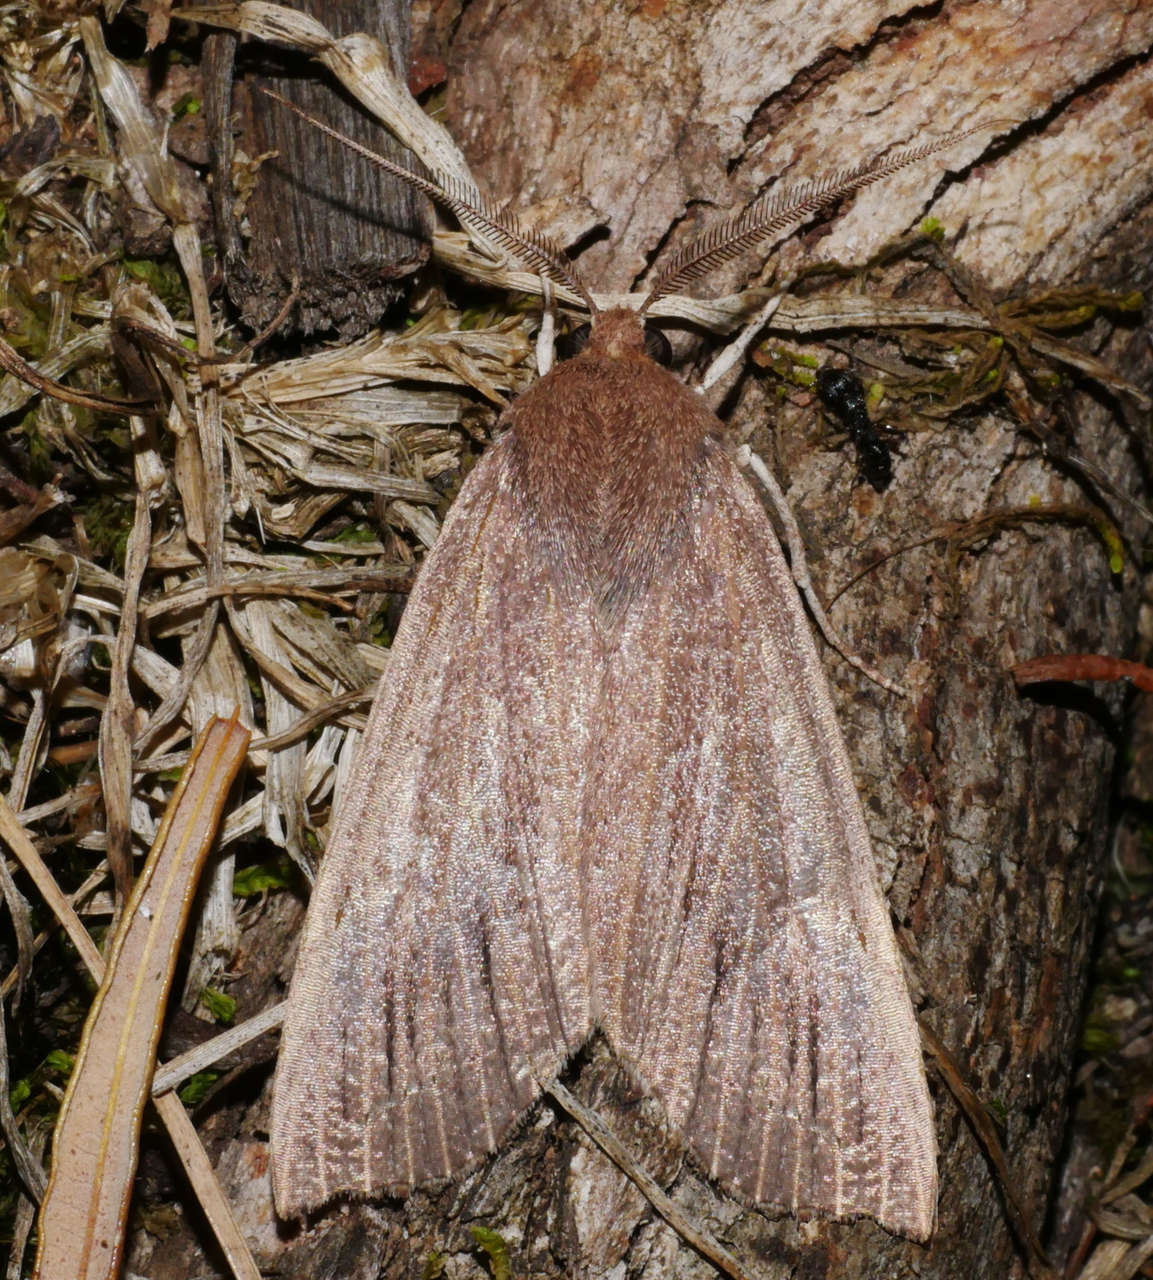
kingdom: Animalia
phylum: Arthropoda
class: Insecta
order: Lepidoptera
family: Geometridae
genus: Palleopa
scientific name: Palleopa innotata
